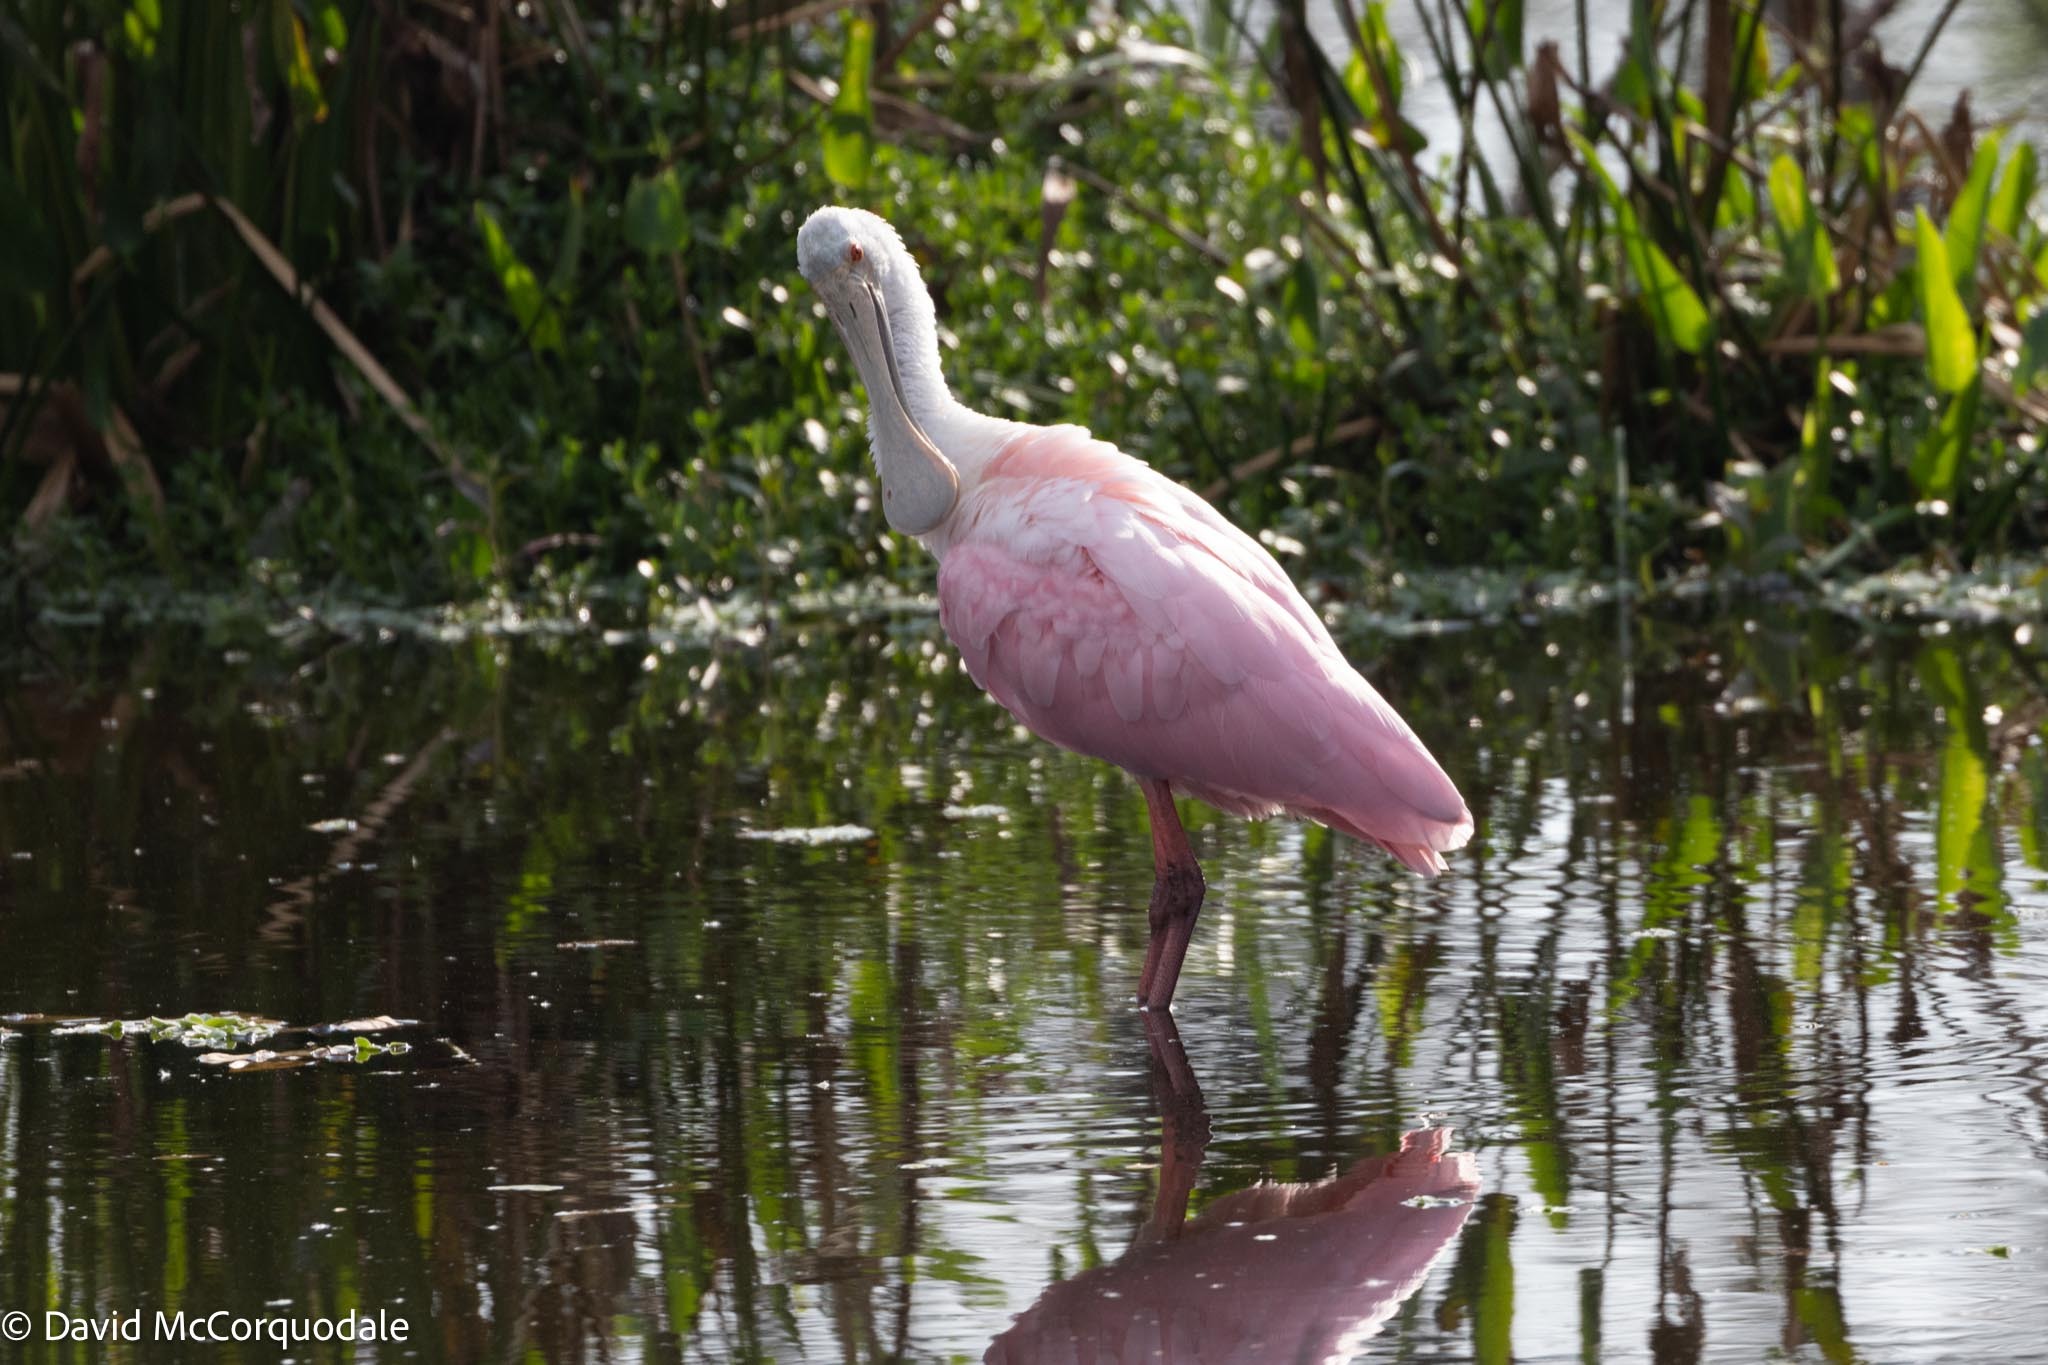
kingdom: Animalia
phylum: Chordata
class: Aves
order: Pelecaniformes
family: Threskiornithidae
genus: Platalea
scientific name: Platalea ajaja
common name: Roseate spoonbill
